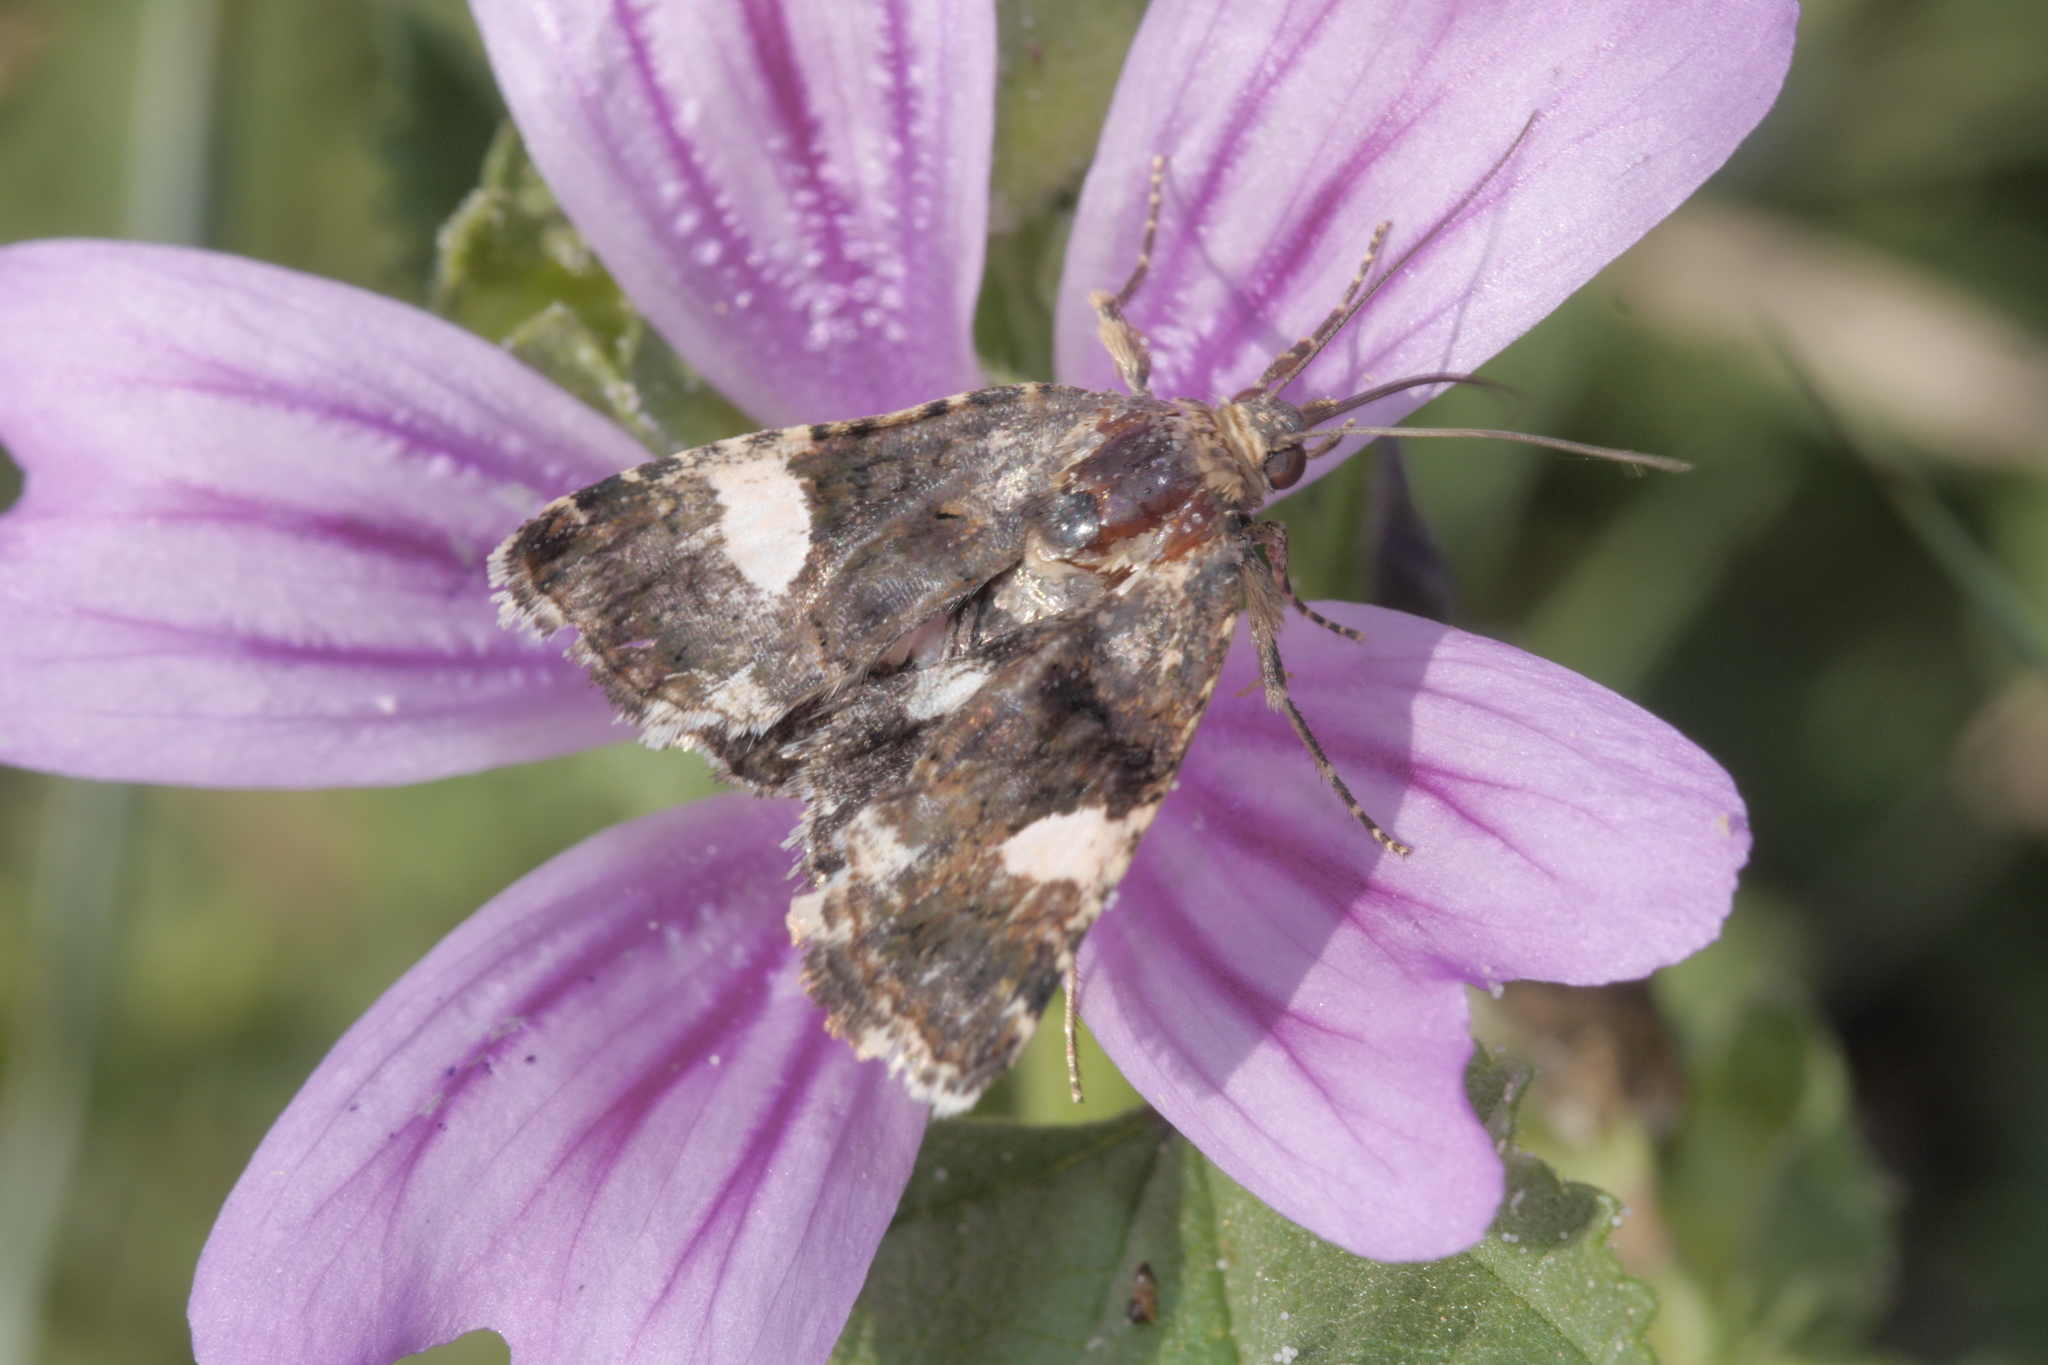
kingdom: Animalia
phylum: Arthropoda
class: Insecta
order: Lepidoptera
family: Erebidae
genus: Tyta
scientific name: Tyta luctuosa
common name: Four-spotted
